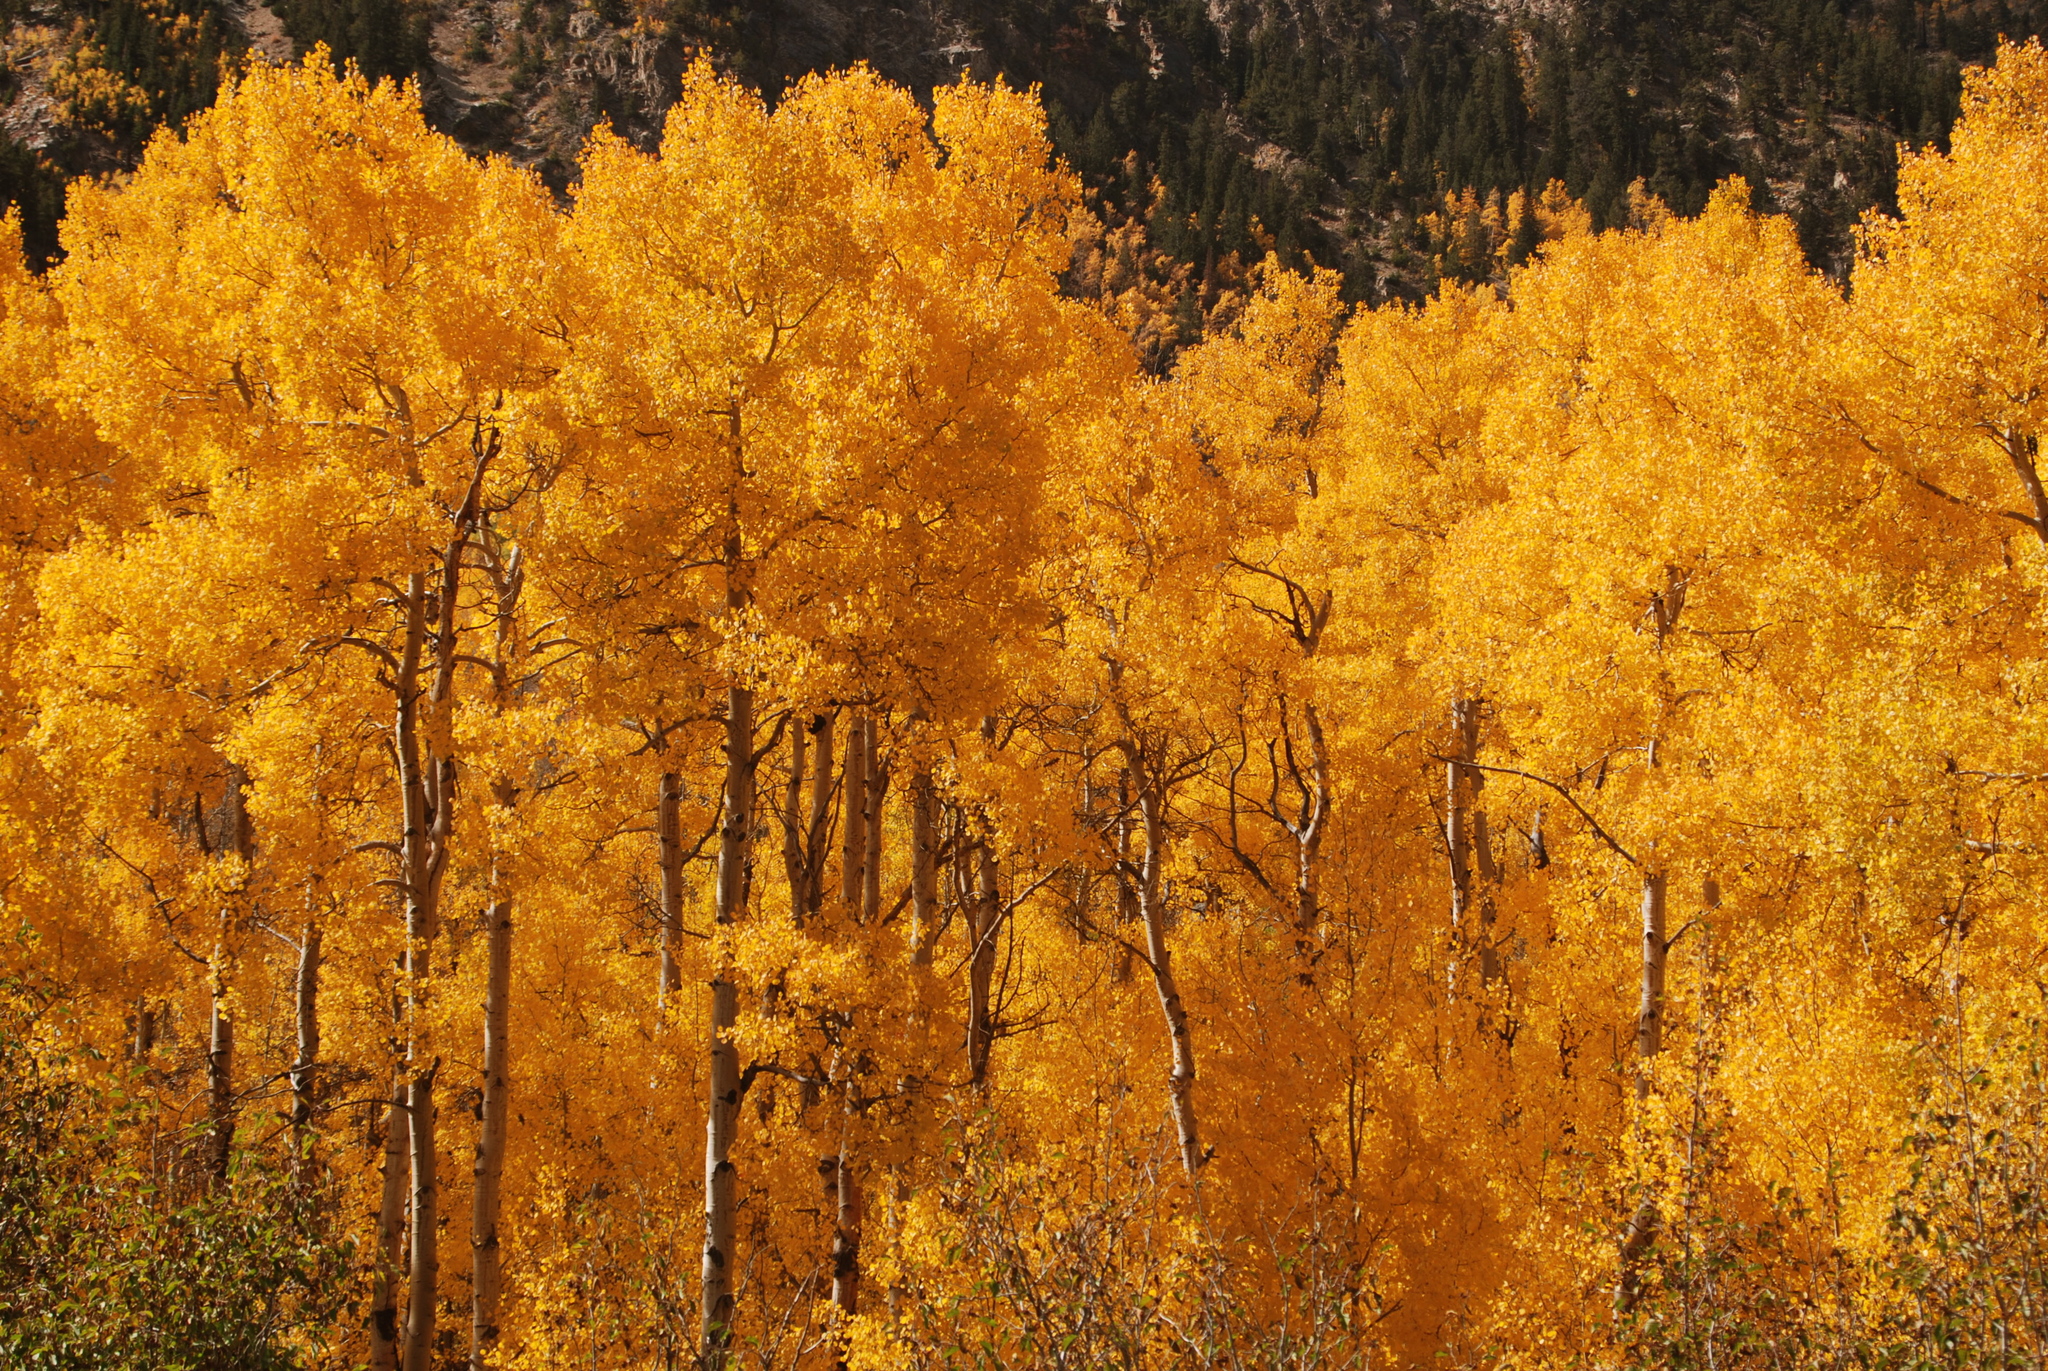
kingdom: Plantae
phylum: Tracheophyta
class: Magnoliopsida
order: Malpighiales
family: Salicaceae
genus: Populus
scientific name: Populus tremuloides
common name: Quaking aspen
